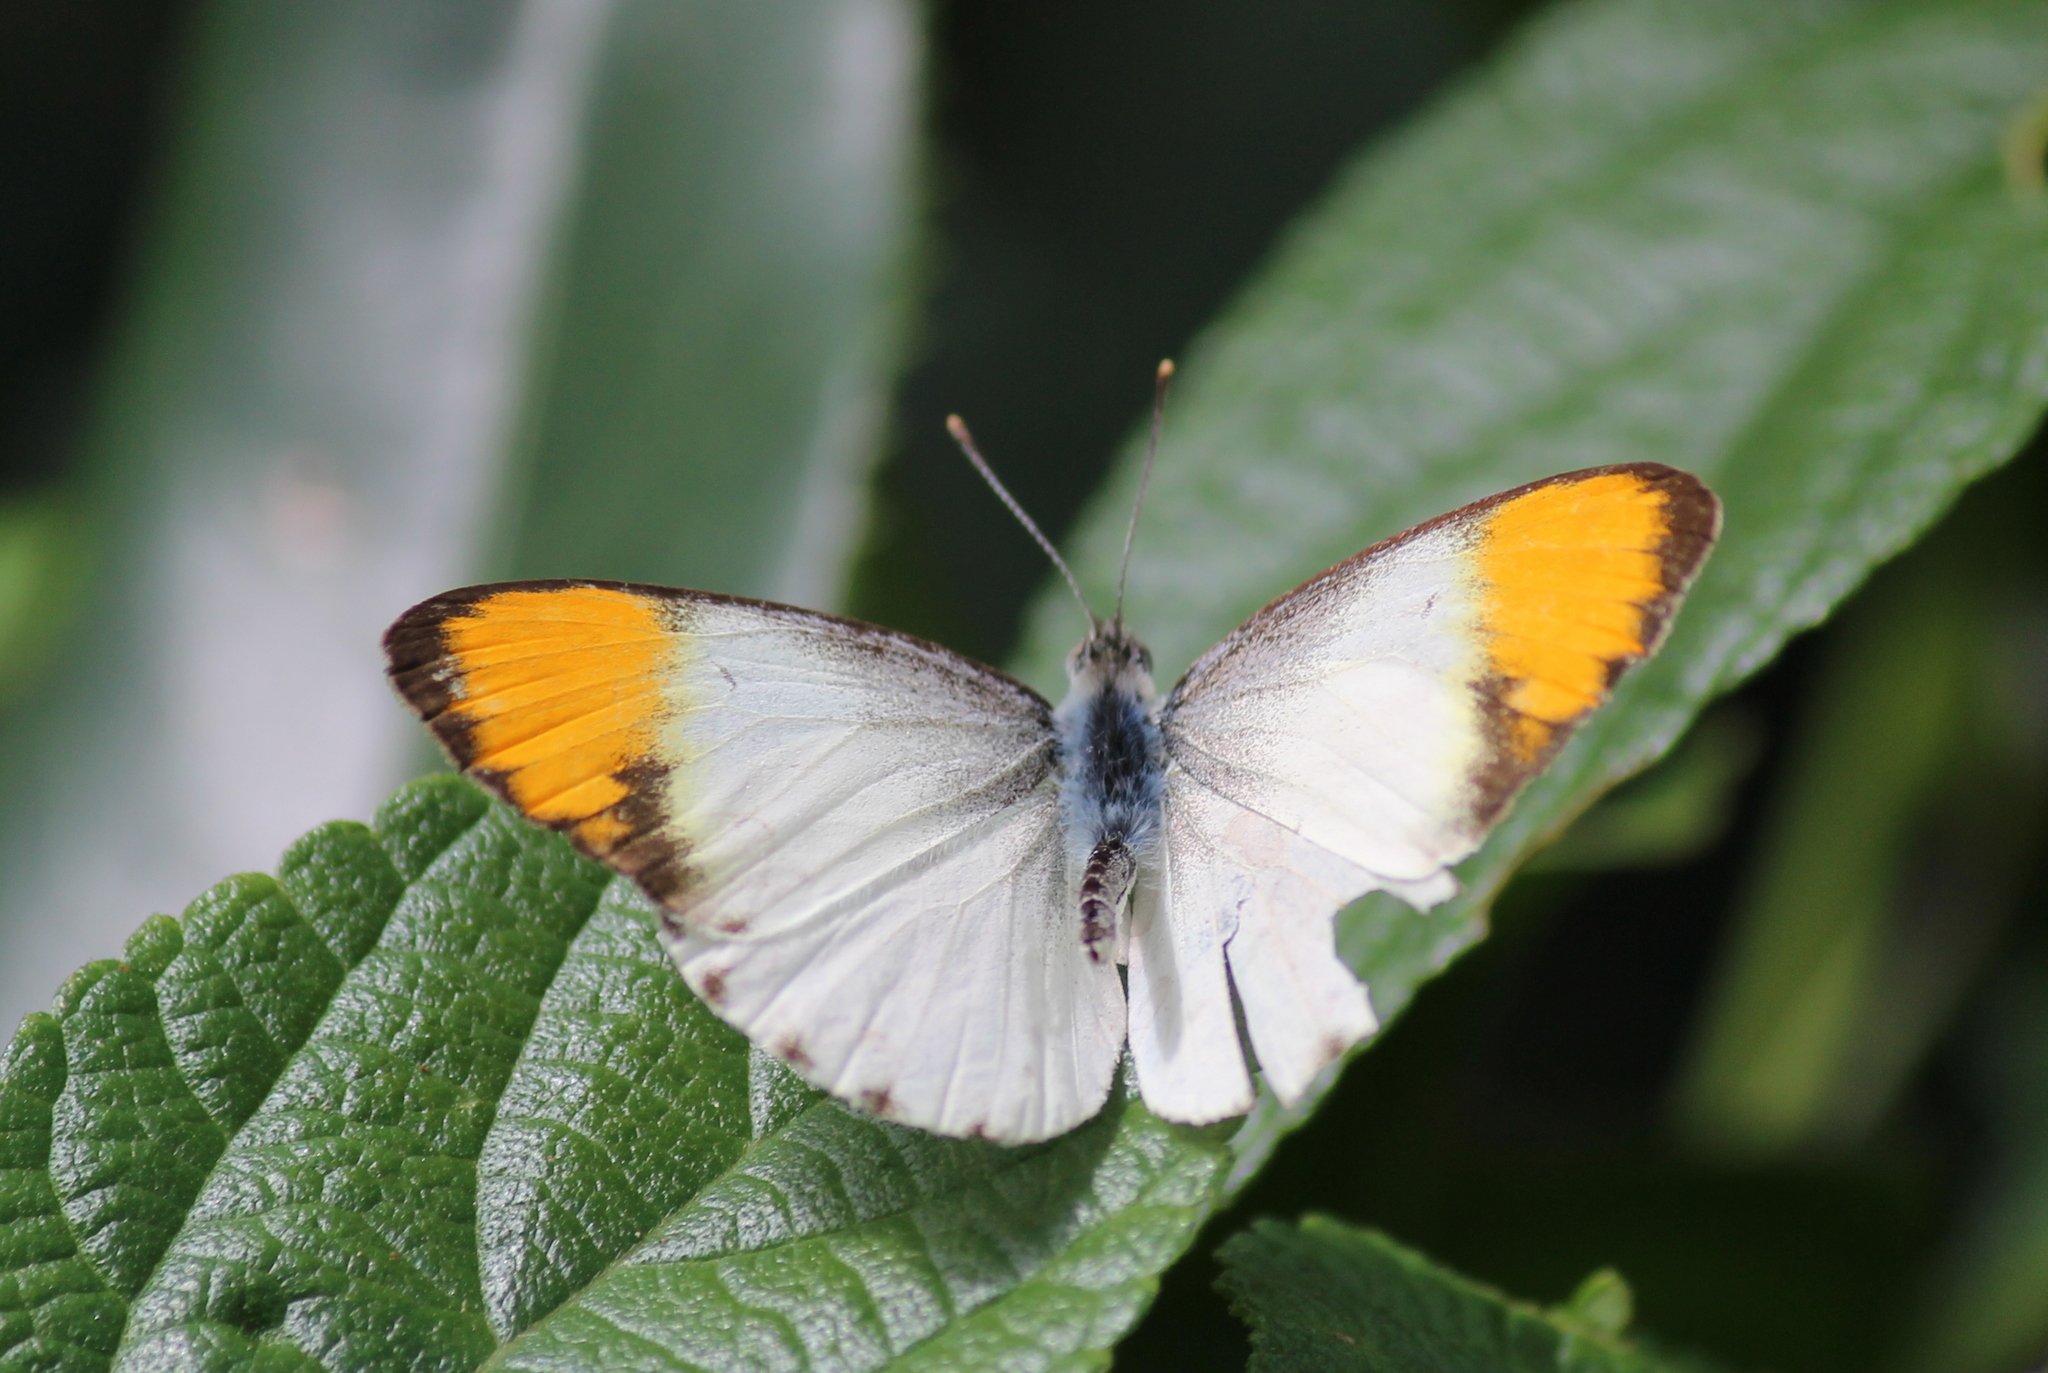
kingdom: Animalia
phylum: Arthropoda
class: Insecta
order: Lepidoptera
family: Pieridae
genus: Colotis
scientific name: Colotis aurora
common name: Plain orange-tip
